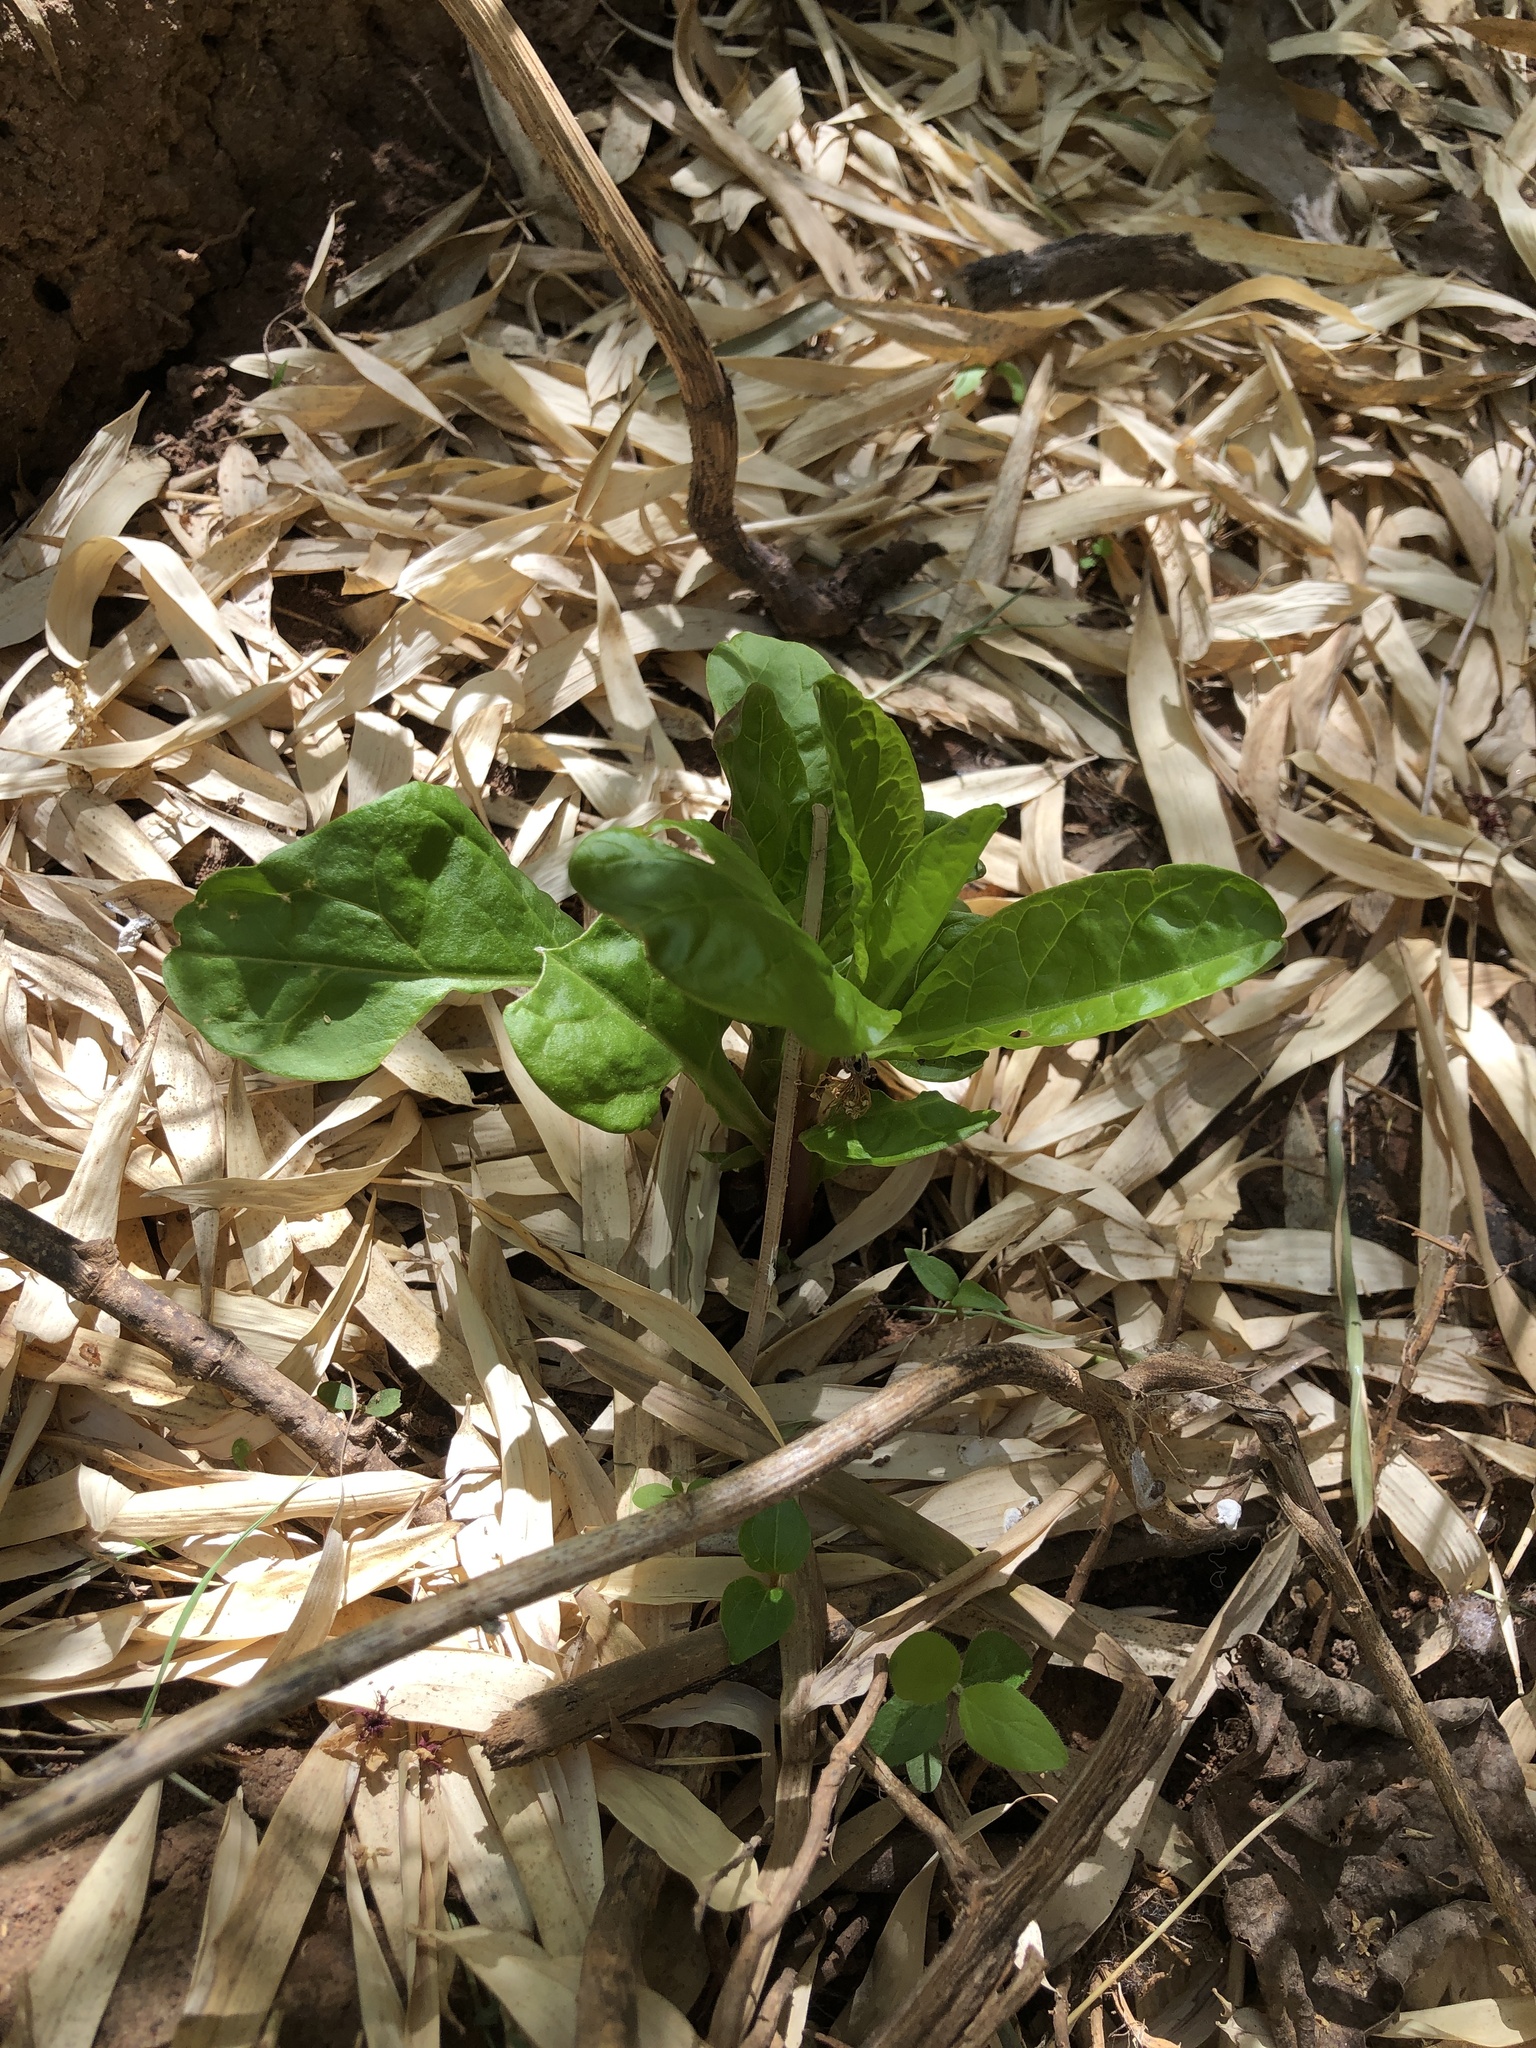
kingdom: Plantae
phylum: Tracheophyta
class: Magnoliopsida
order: Caryophyllales
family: Phytolaccaceae
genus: Phytolacca
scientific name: Phytolacca americana
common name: American pokeweed
